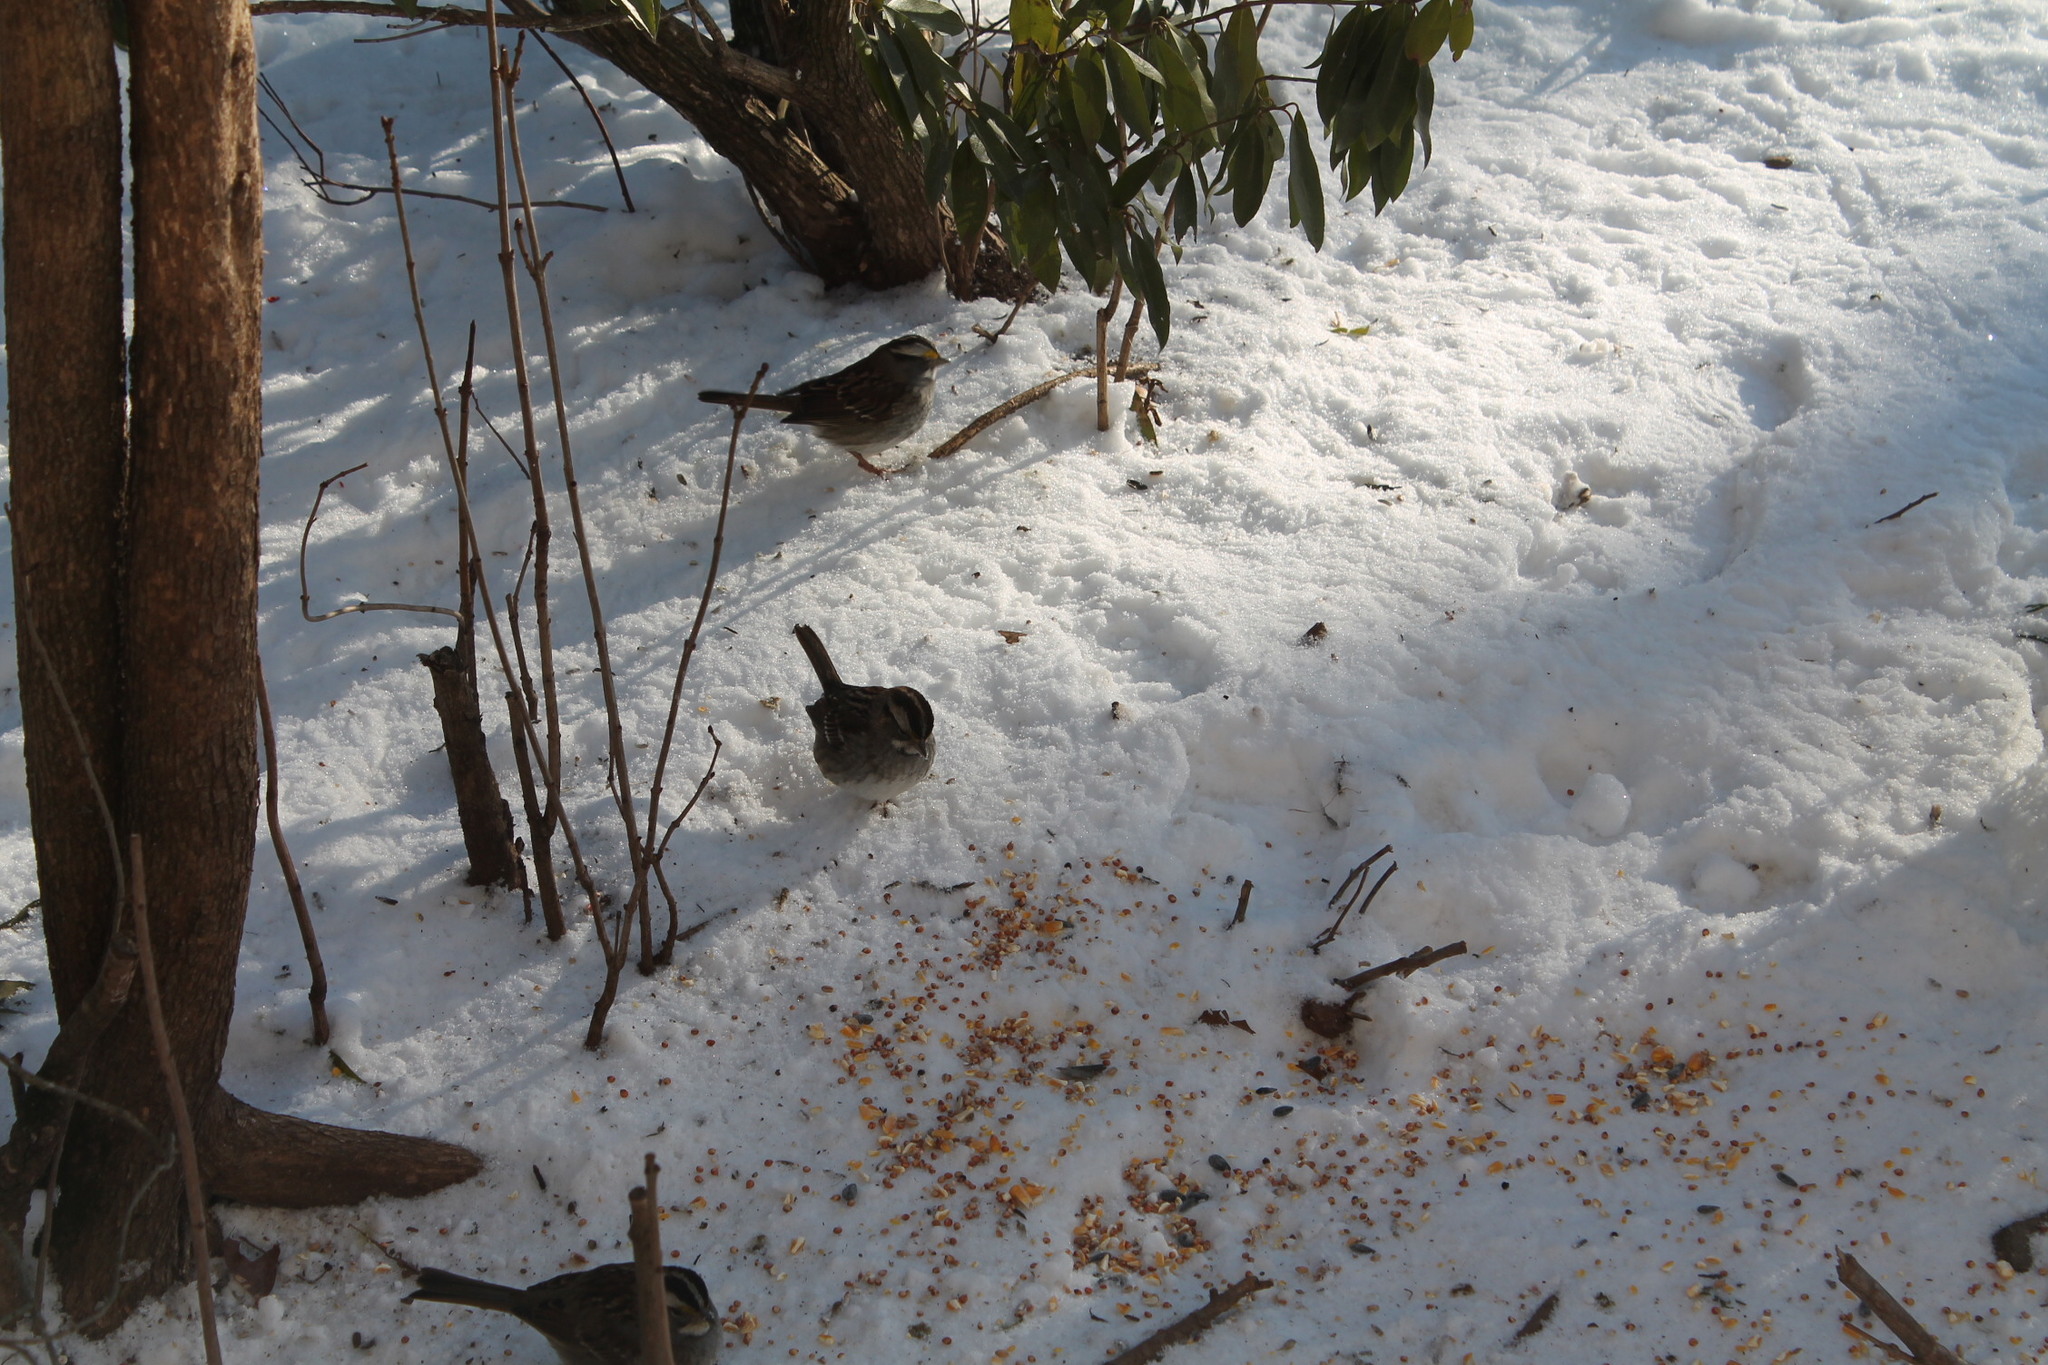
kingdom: Animalia
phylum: Chordata
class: Aves
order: Passeriformes
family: Passerellidae
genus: Zonotrichia
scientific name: Zonotrichia albicollis
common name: White-throated sparrow
